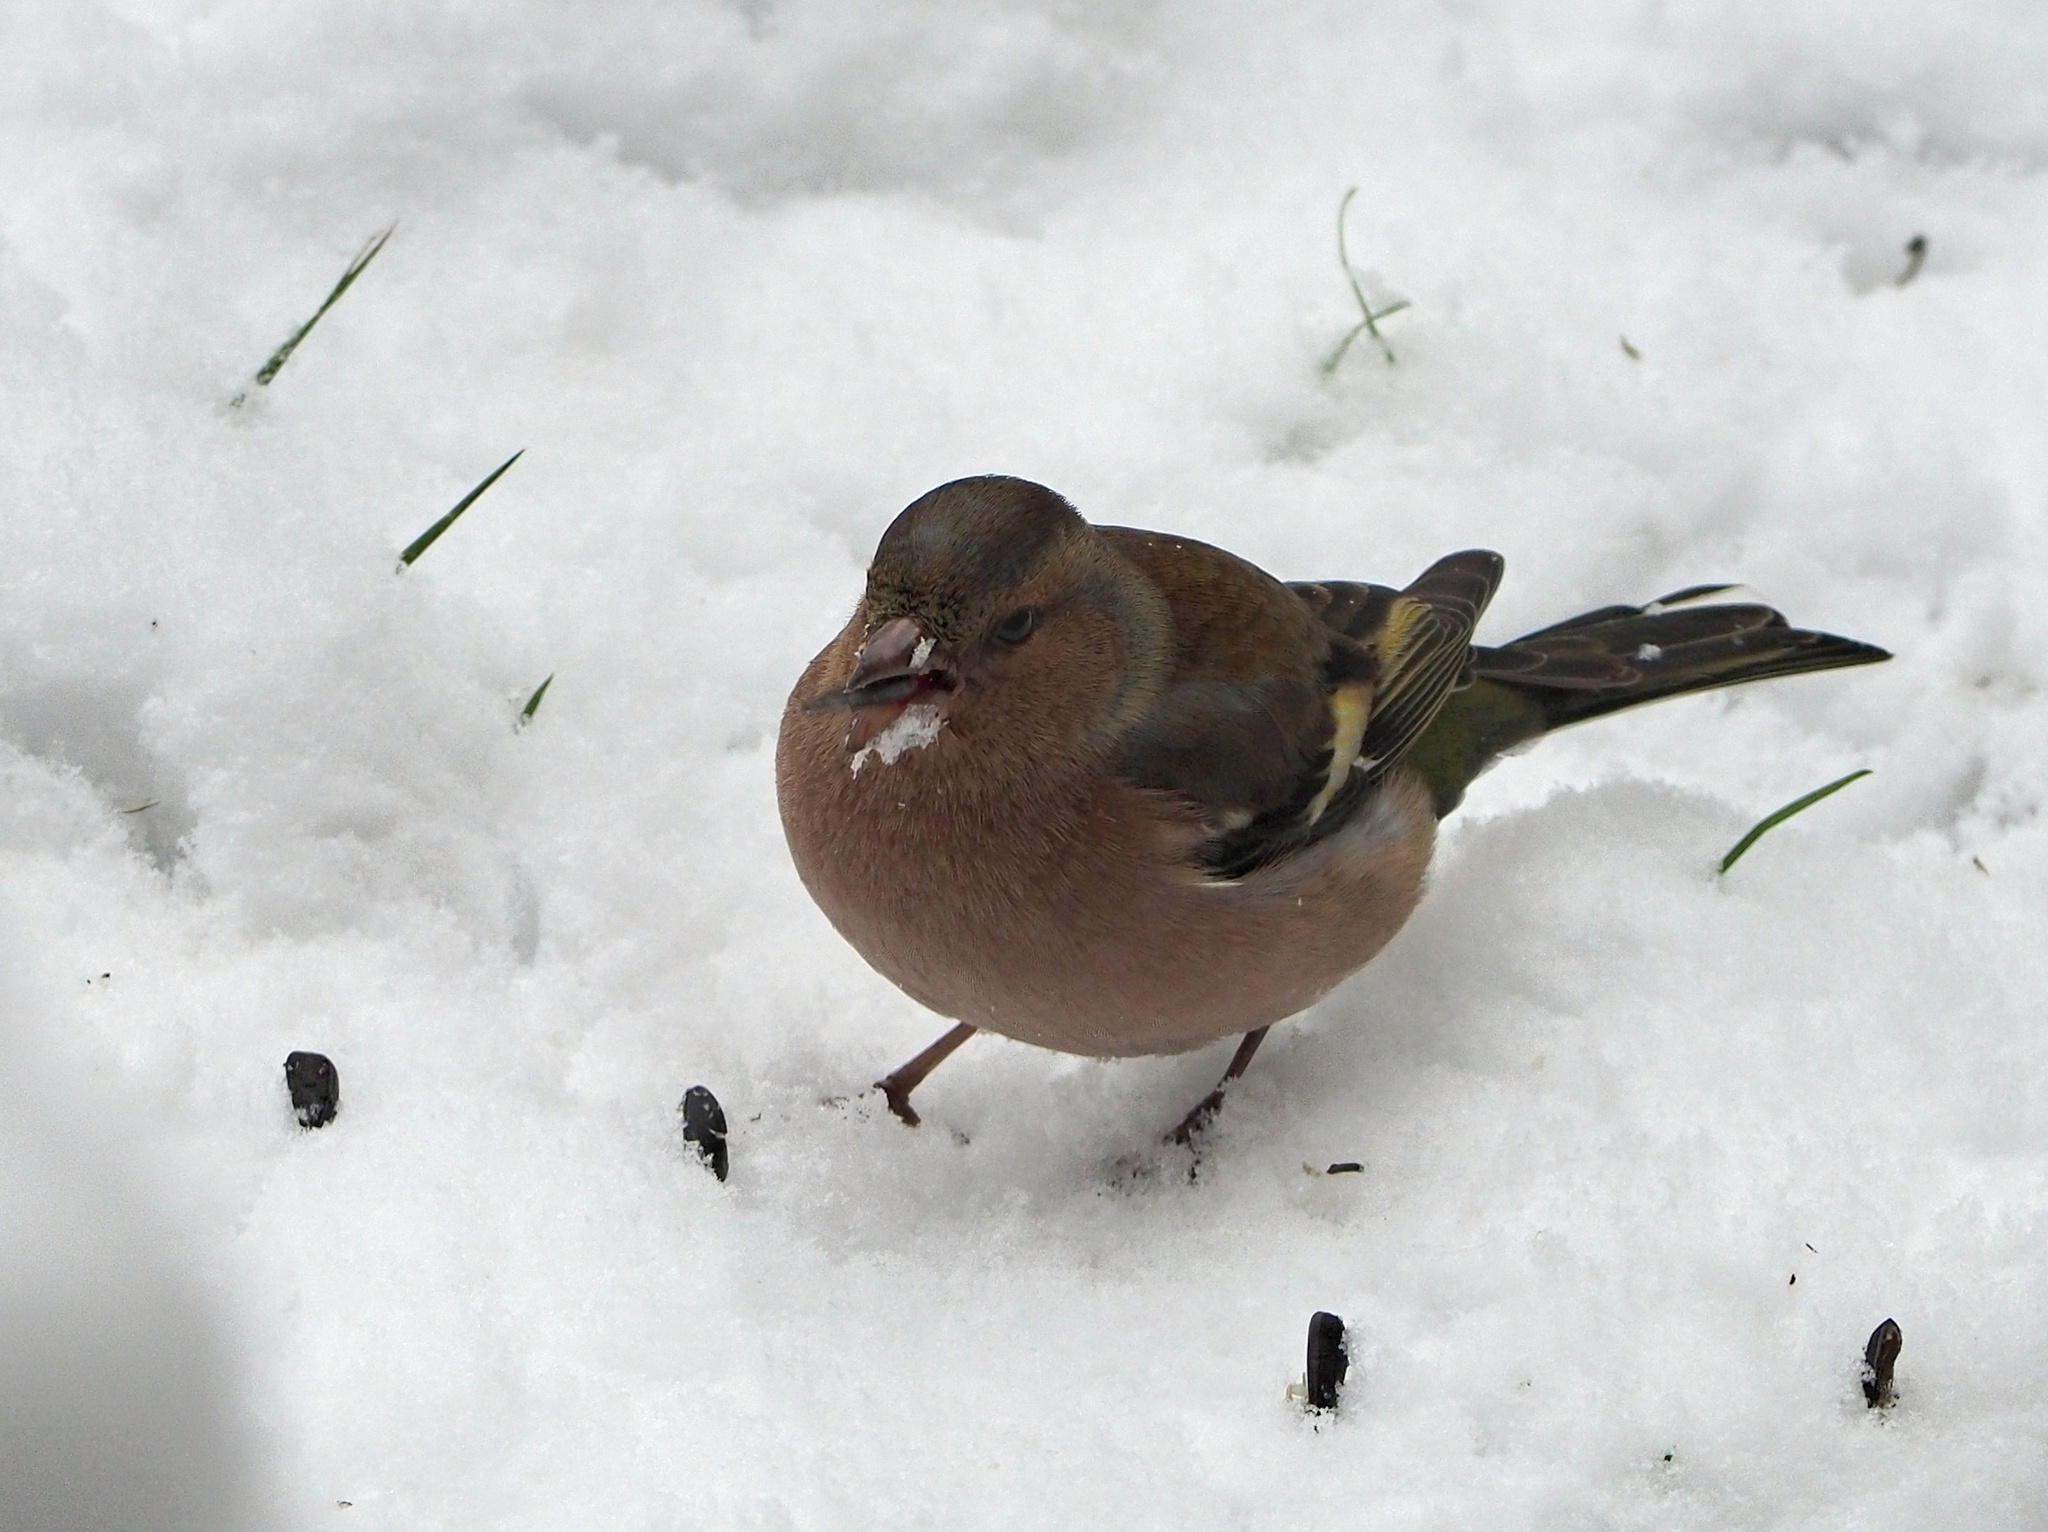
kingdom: Animalia
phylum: Chordata
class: Aves
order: Passeriformes
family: Fringillidae
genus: Fringilla
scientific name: Fringilla coelebs
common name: Common chaffinch
